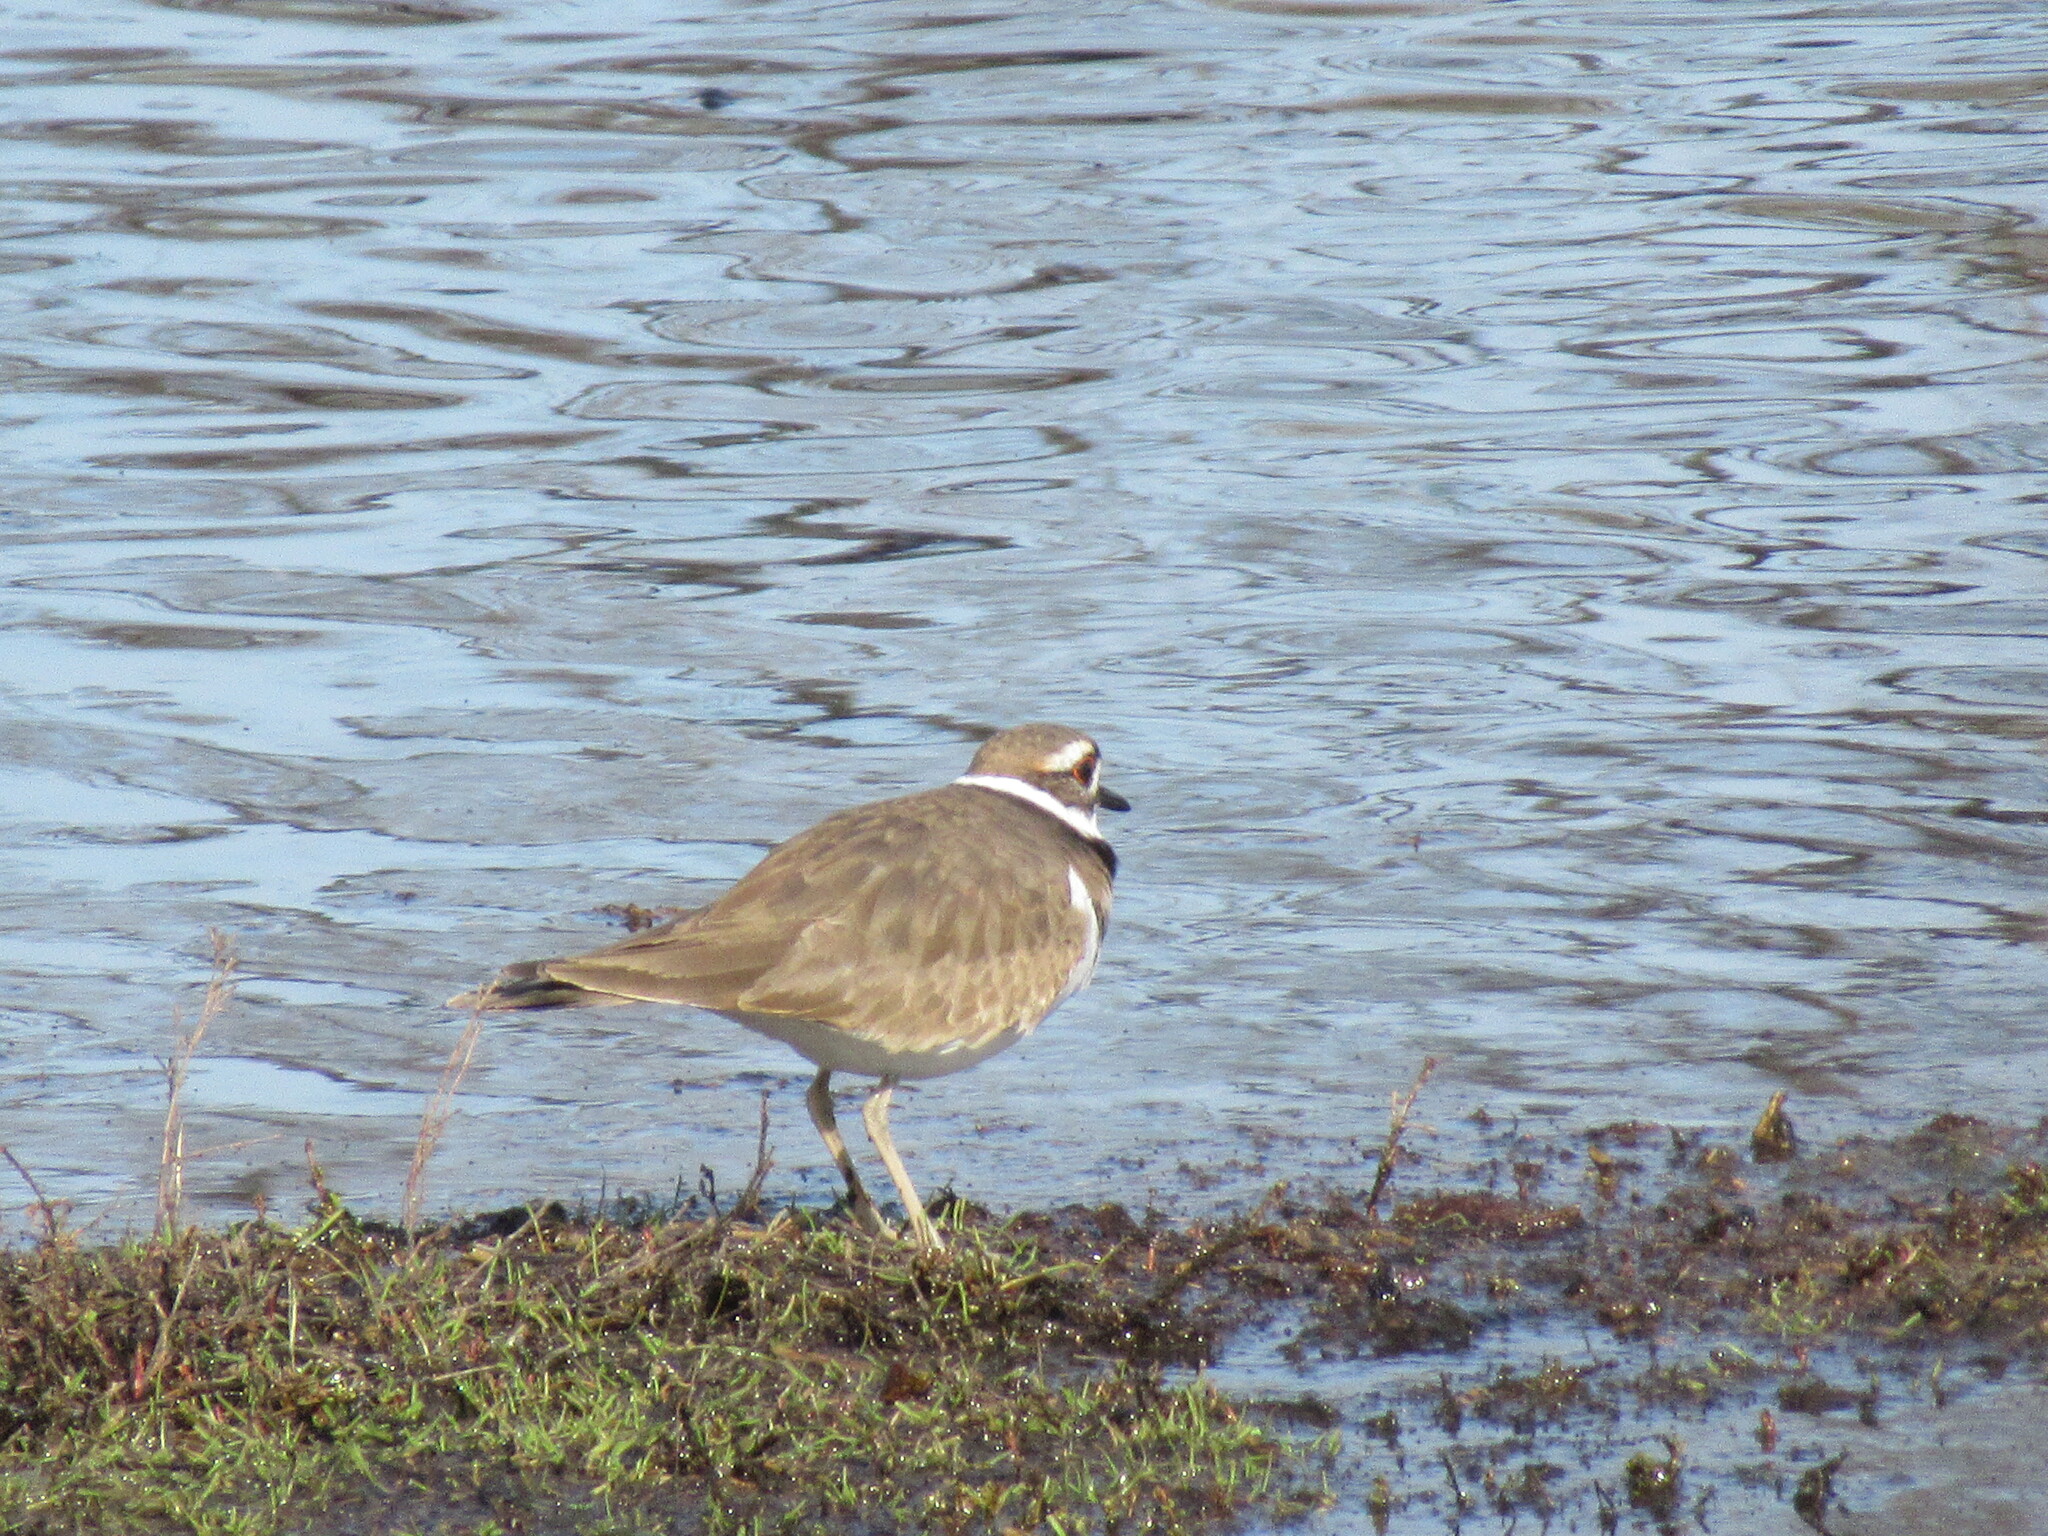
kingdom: Animalia
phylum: Chordata
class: Aves
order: Charadriiformes
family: Charadriidae
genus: Charadrius
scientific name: Charadrius vociferus
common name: Killdeer
